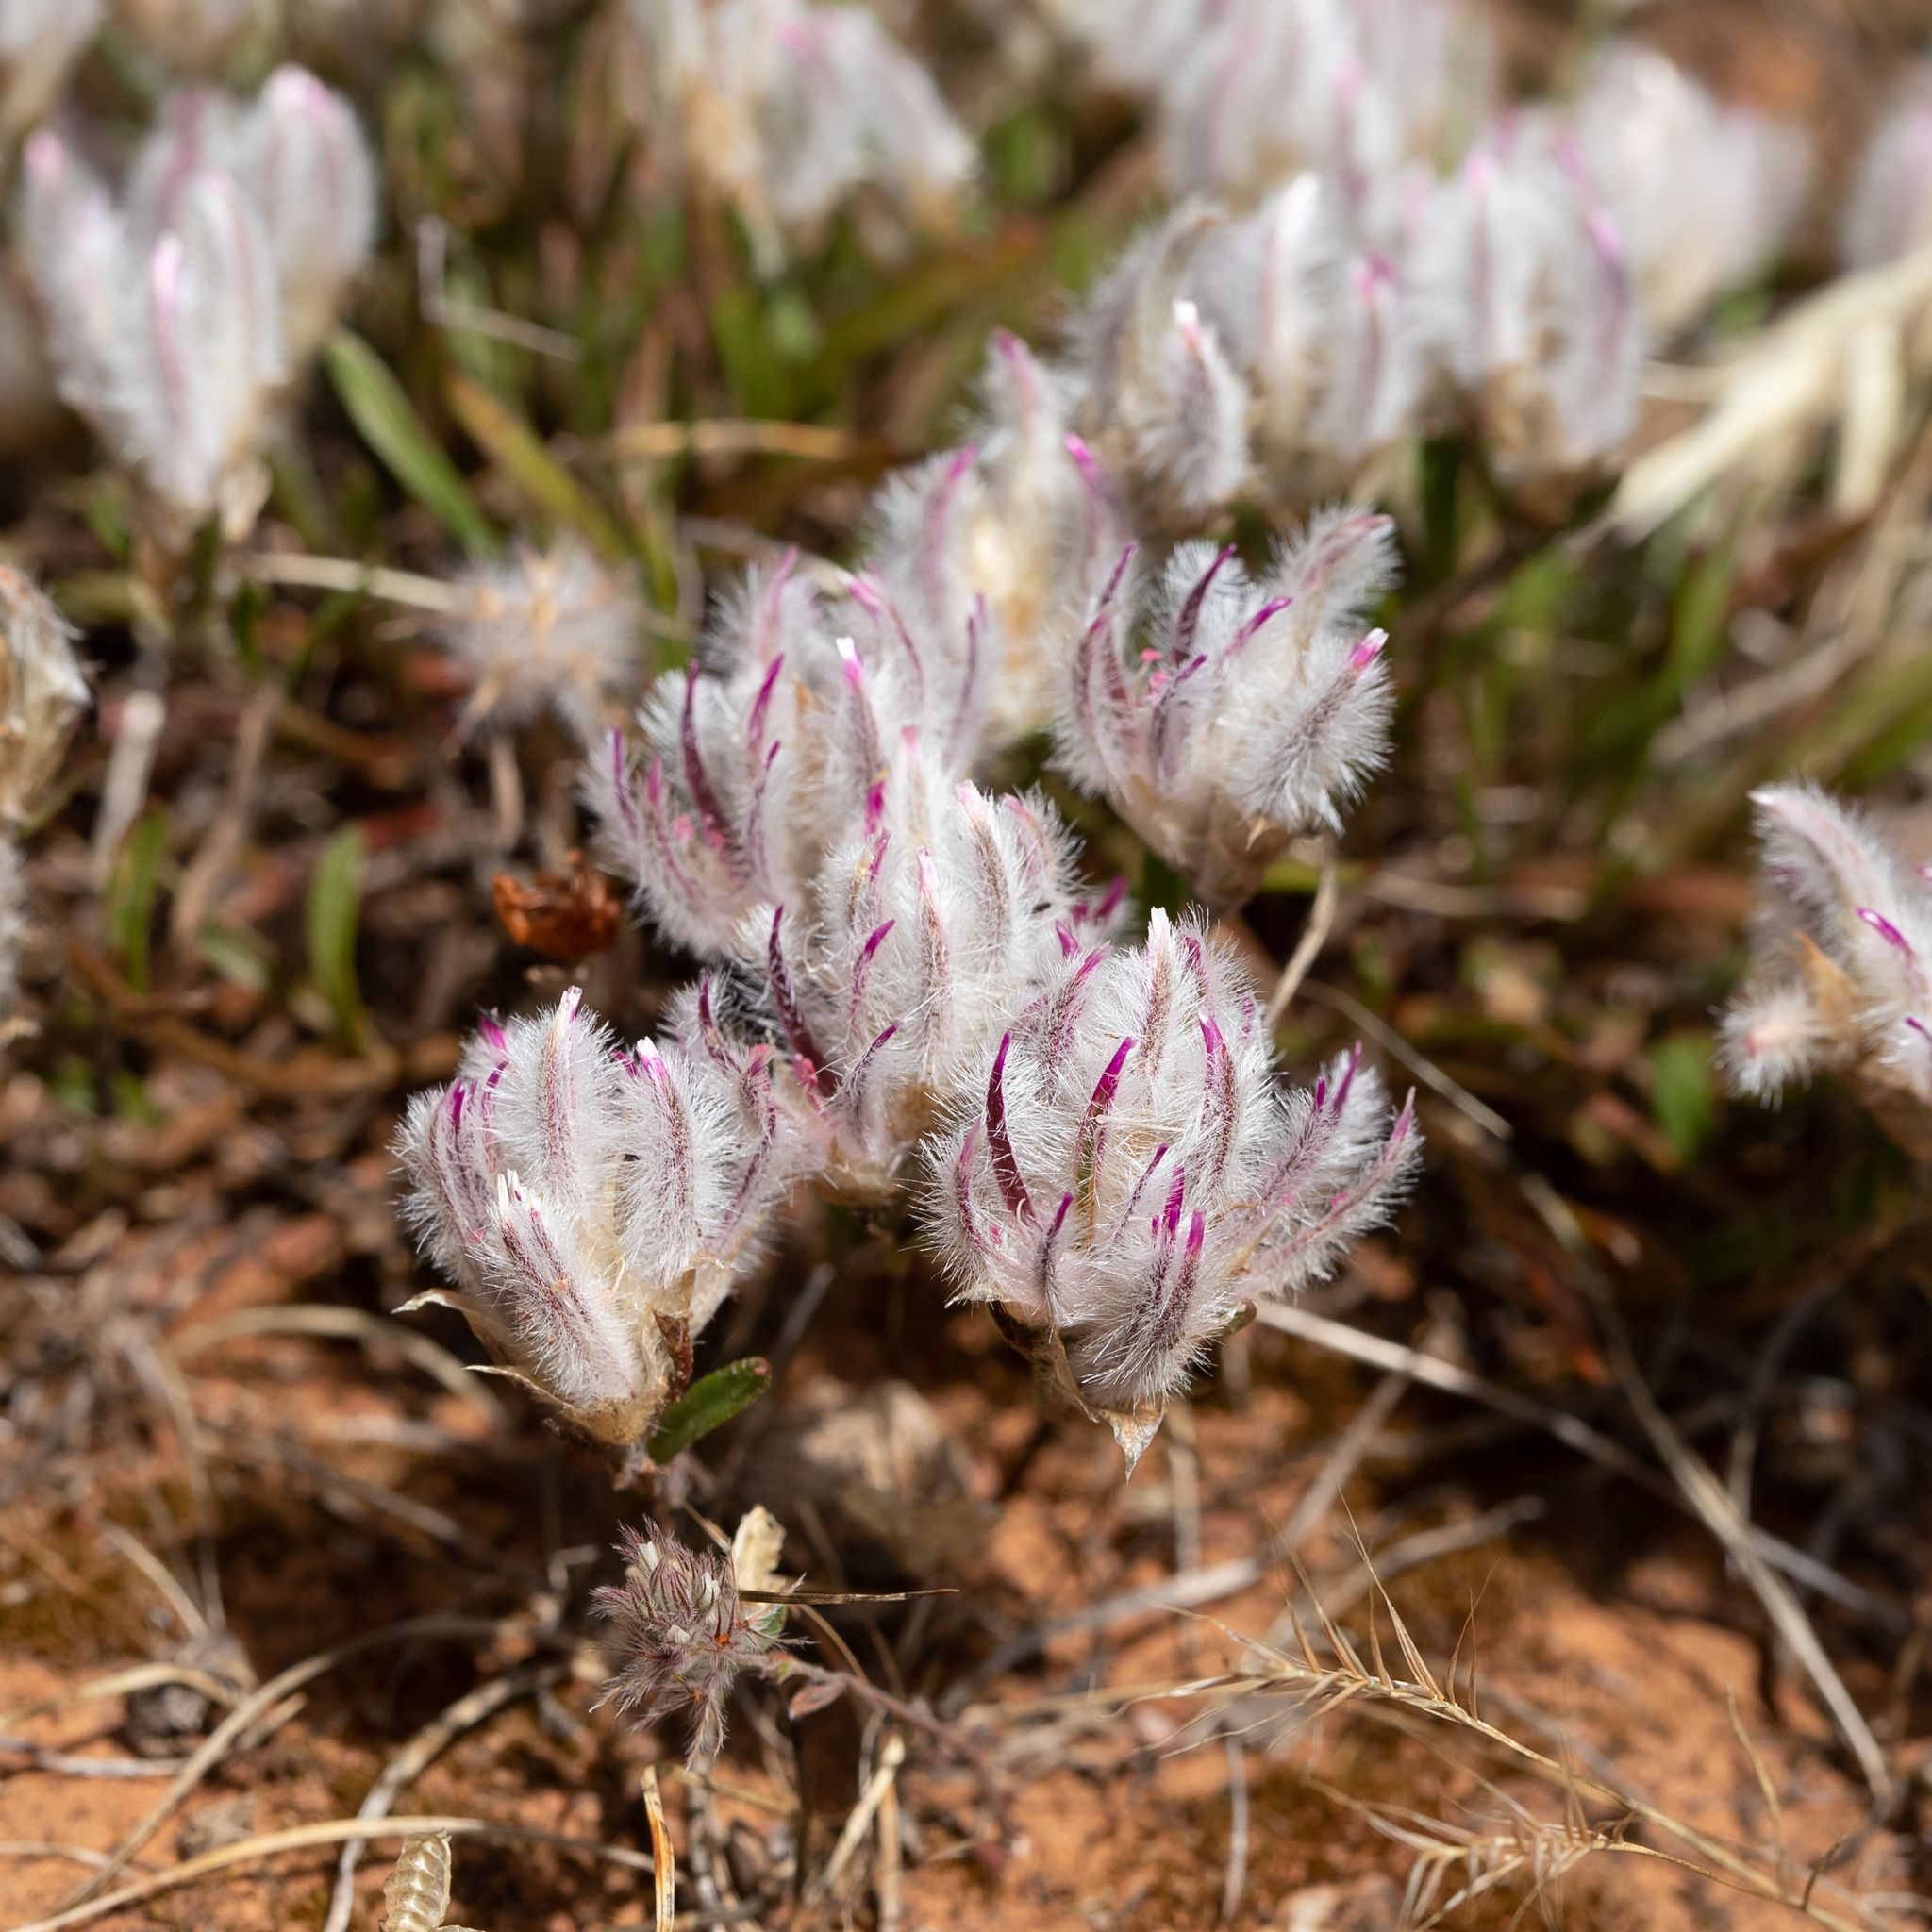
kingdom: Plantae
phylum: Tracheophyta
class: Magnoliopsida
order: Caryophyllales
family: Amaranthaceae
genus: Ptilotus
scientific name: Ptilotus erubescens
